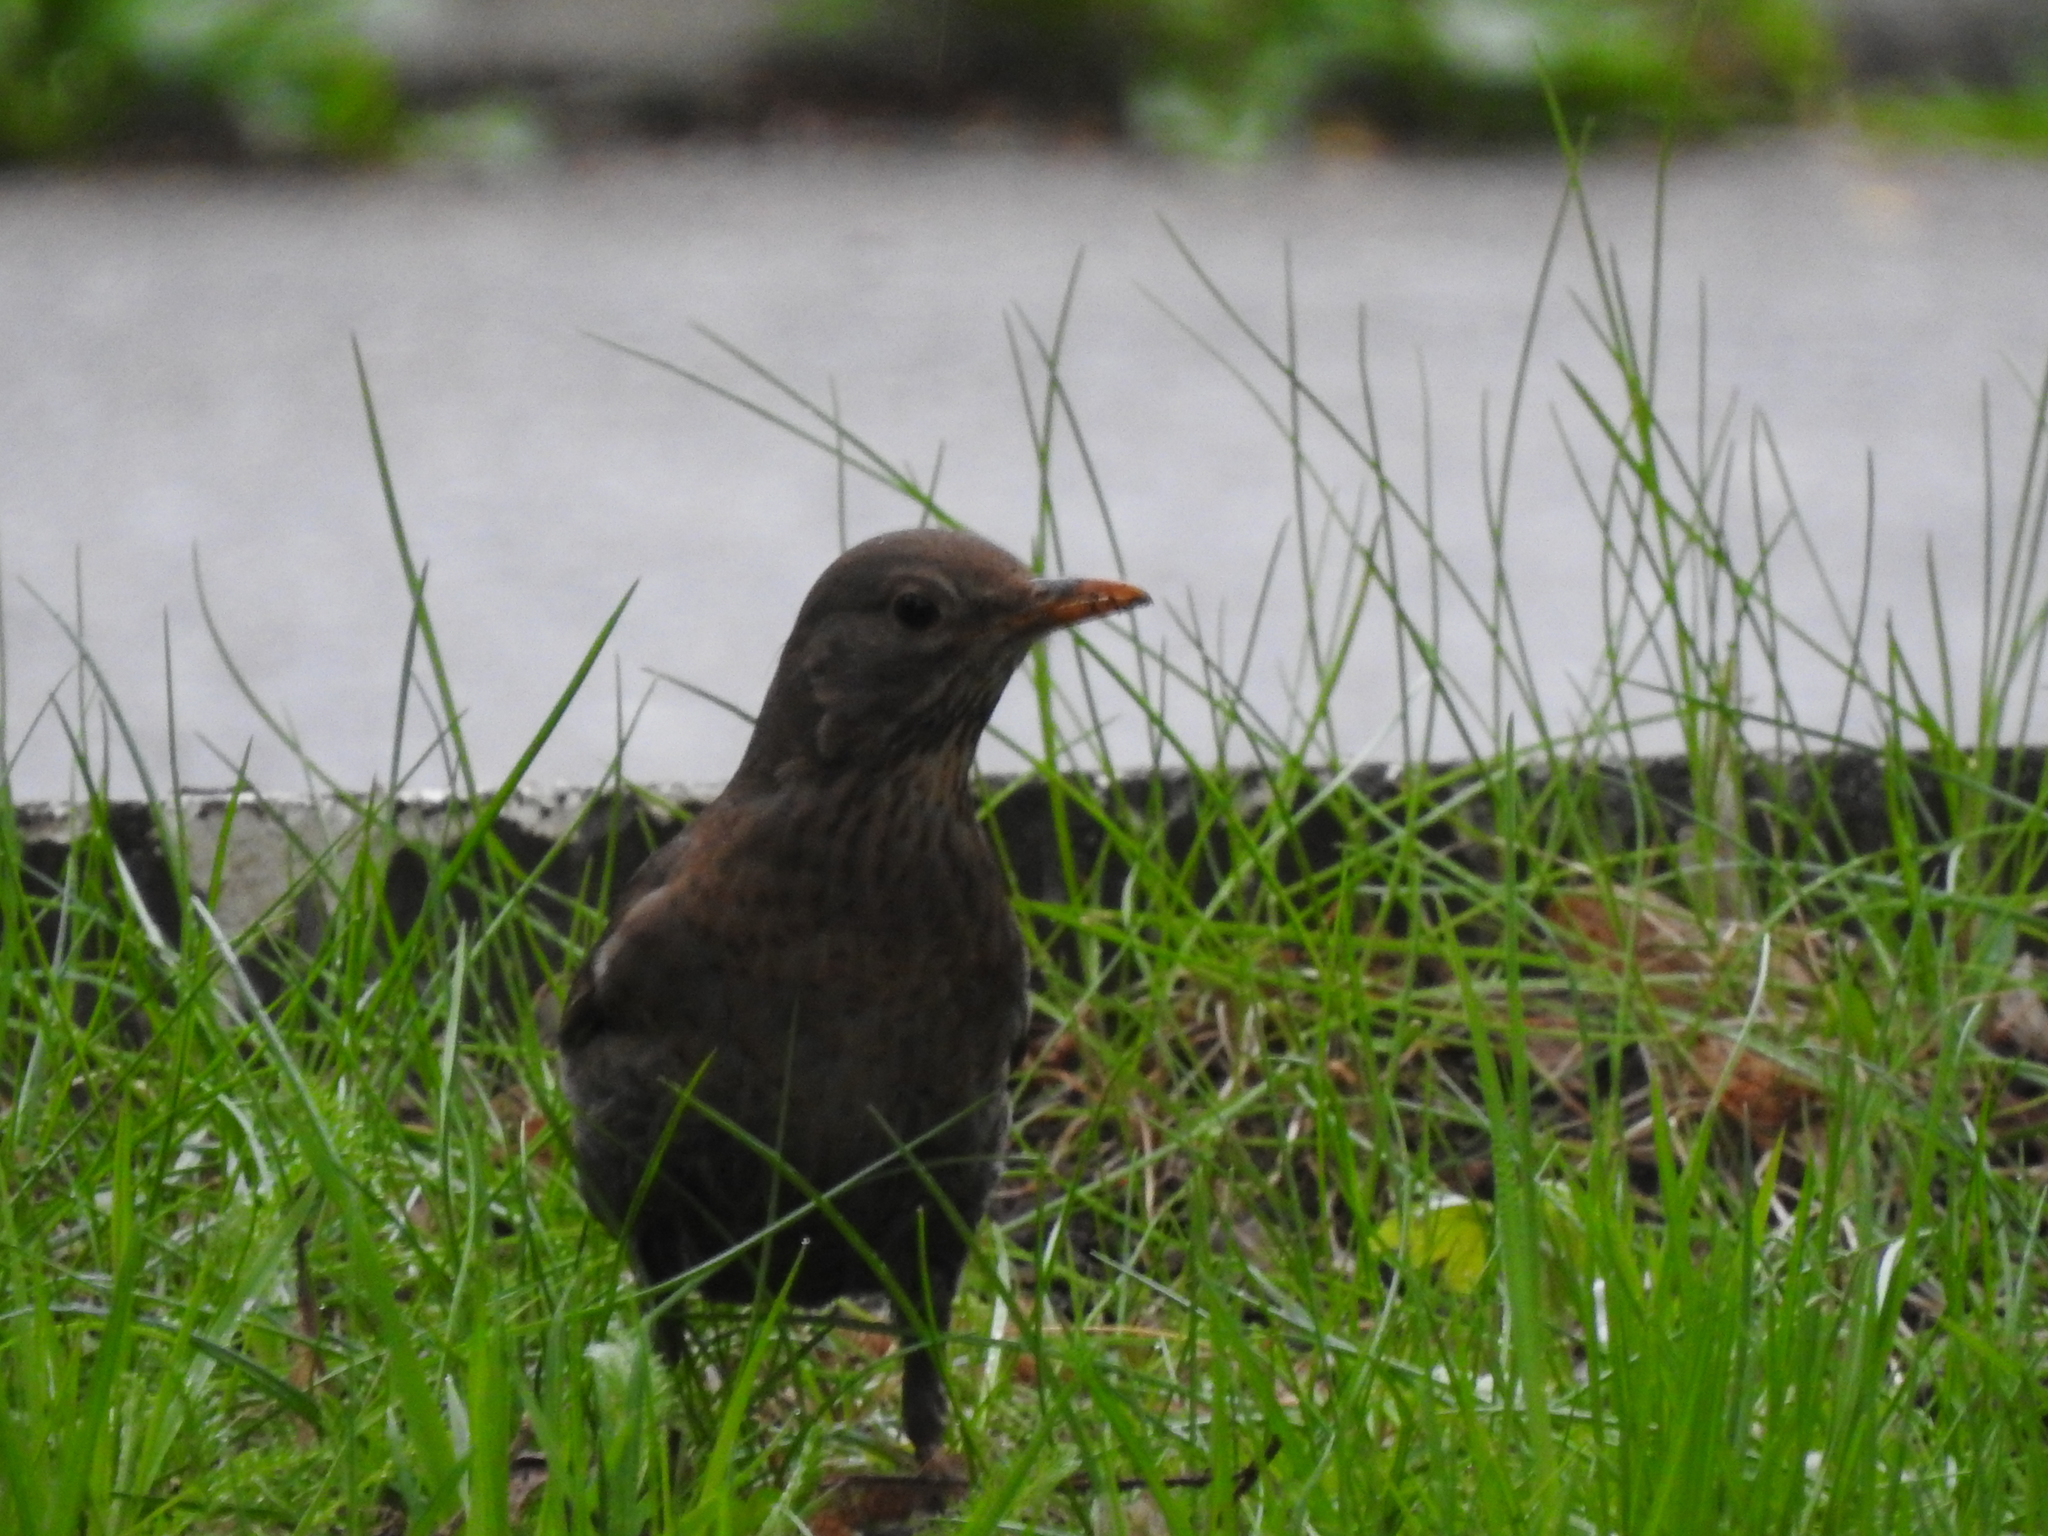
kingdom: Animalia
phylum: Chordata
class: Aves
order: Passeriformes
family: Turdidae
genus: Turdus
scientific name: Turdus merula
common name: Common blackbird
